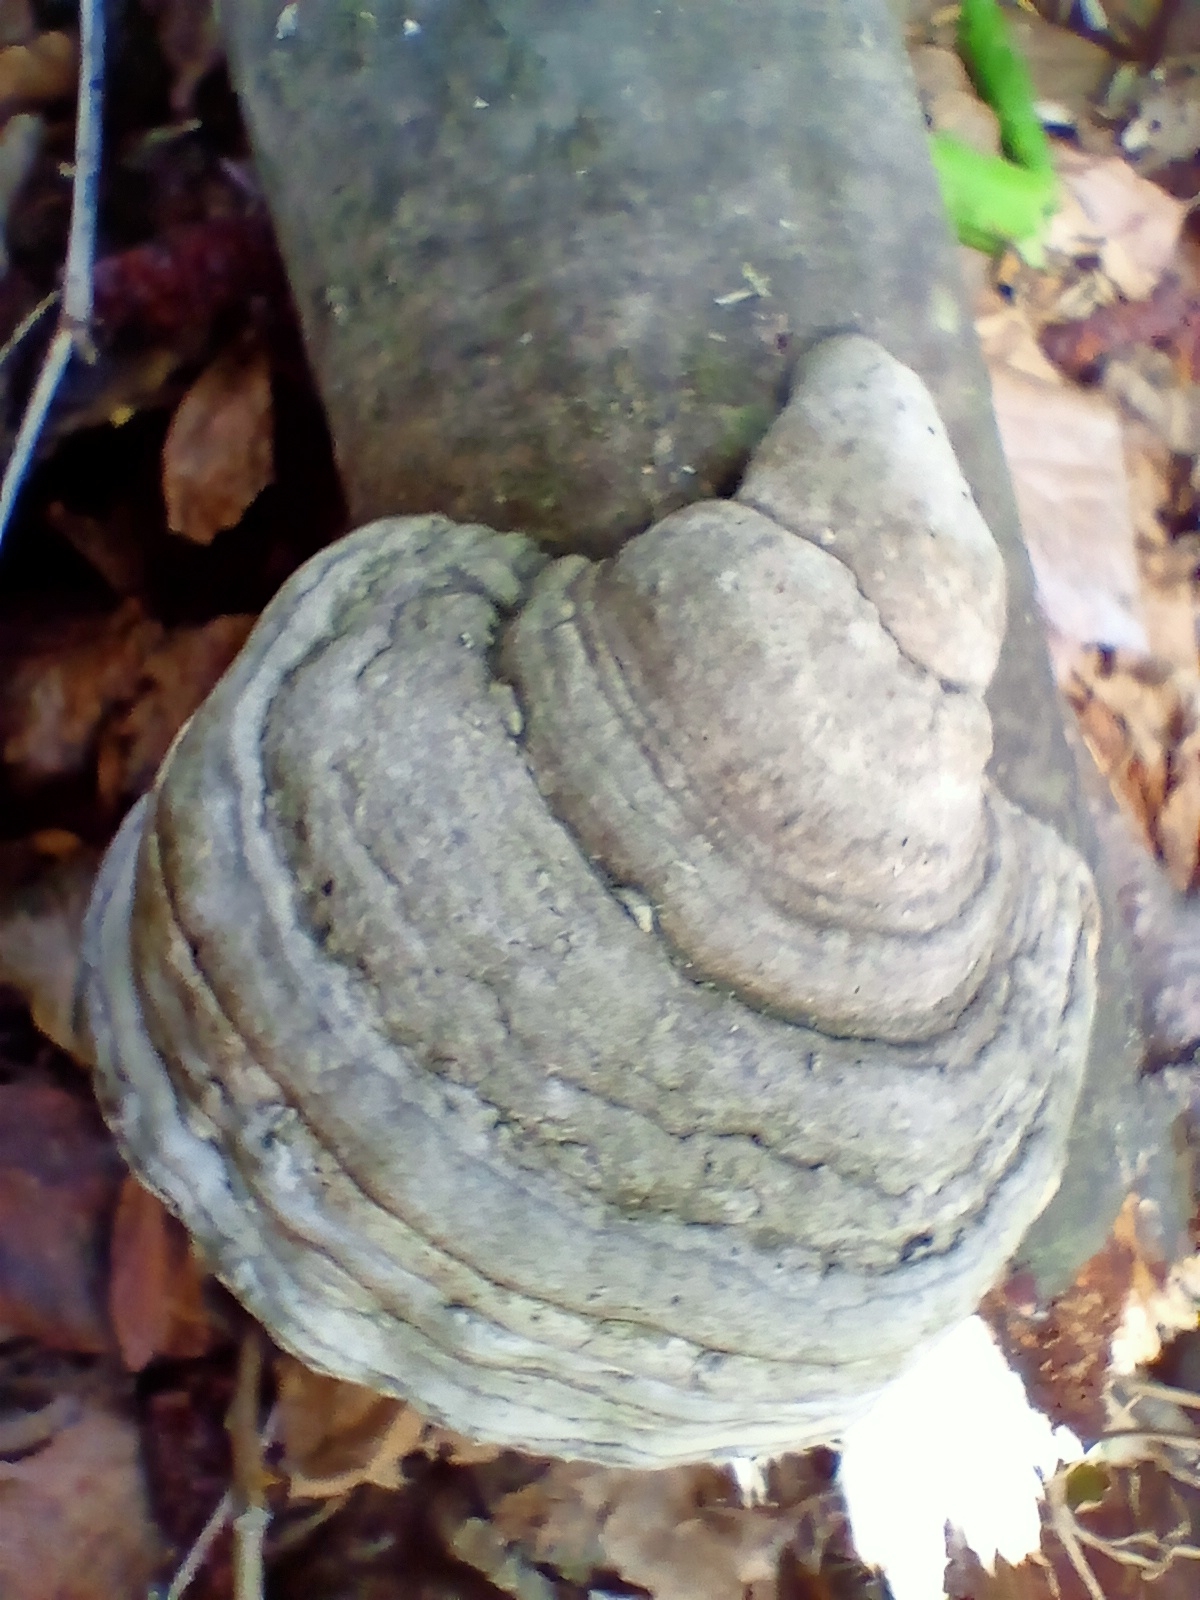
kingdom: Fungi
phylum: Basidiomycota
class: Agaricomycetes
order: Polyporales
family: Polyporaceae
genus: Fomes
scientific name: Fomes fomentarius
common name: Hoof fungus
